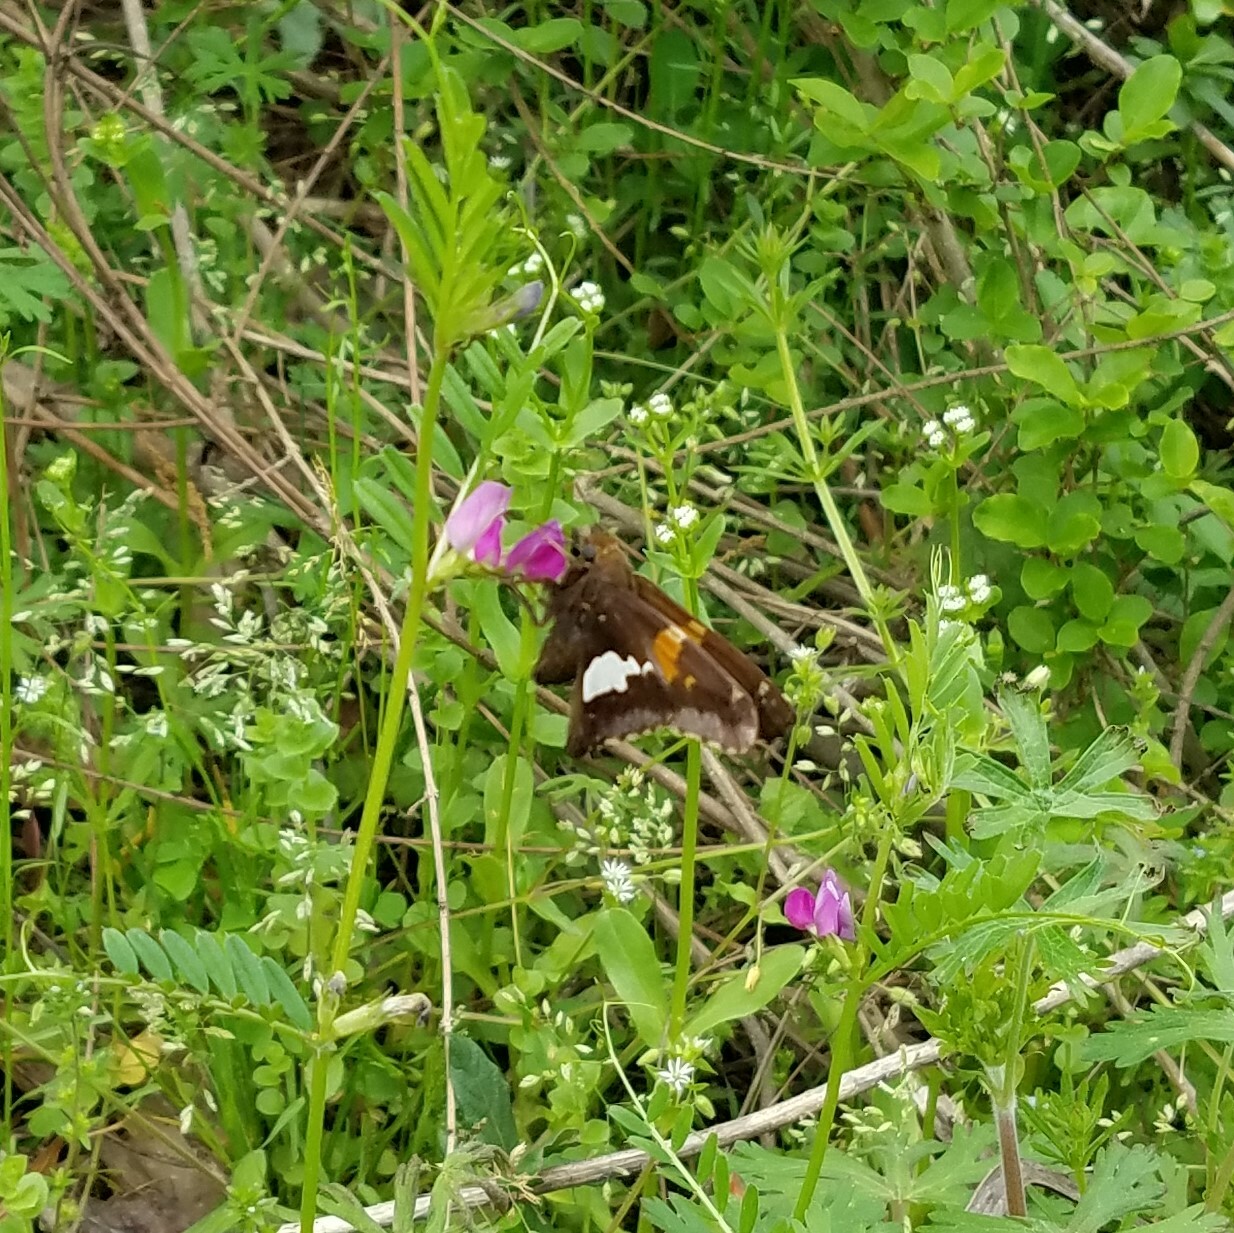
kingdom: Animalia
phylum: Arthropoda
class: Insecta
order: Lepidoptera
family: Hesperiidae
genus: Epargyreus
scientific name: Epargyreus clarus
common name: Silver-spotted skipper
